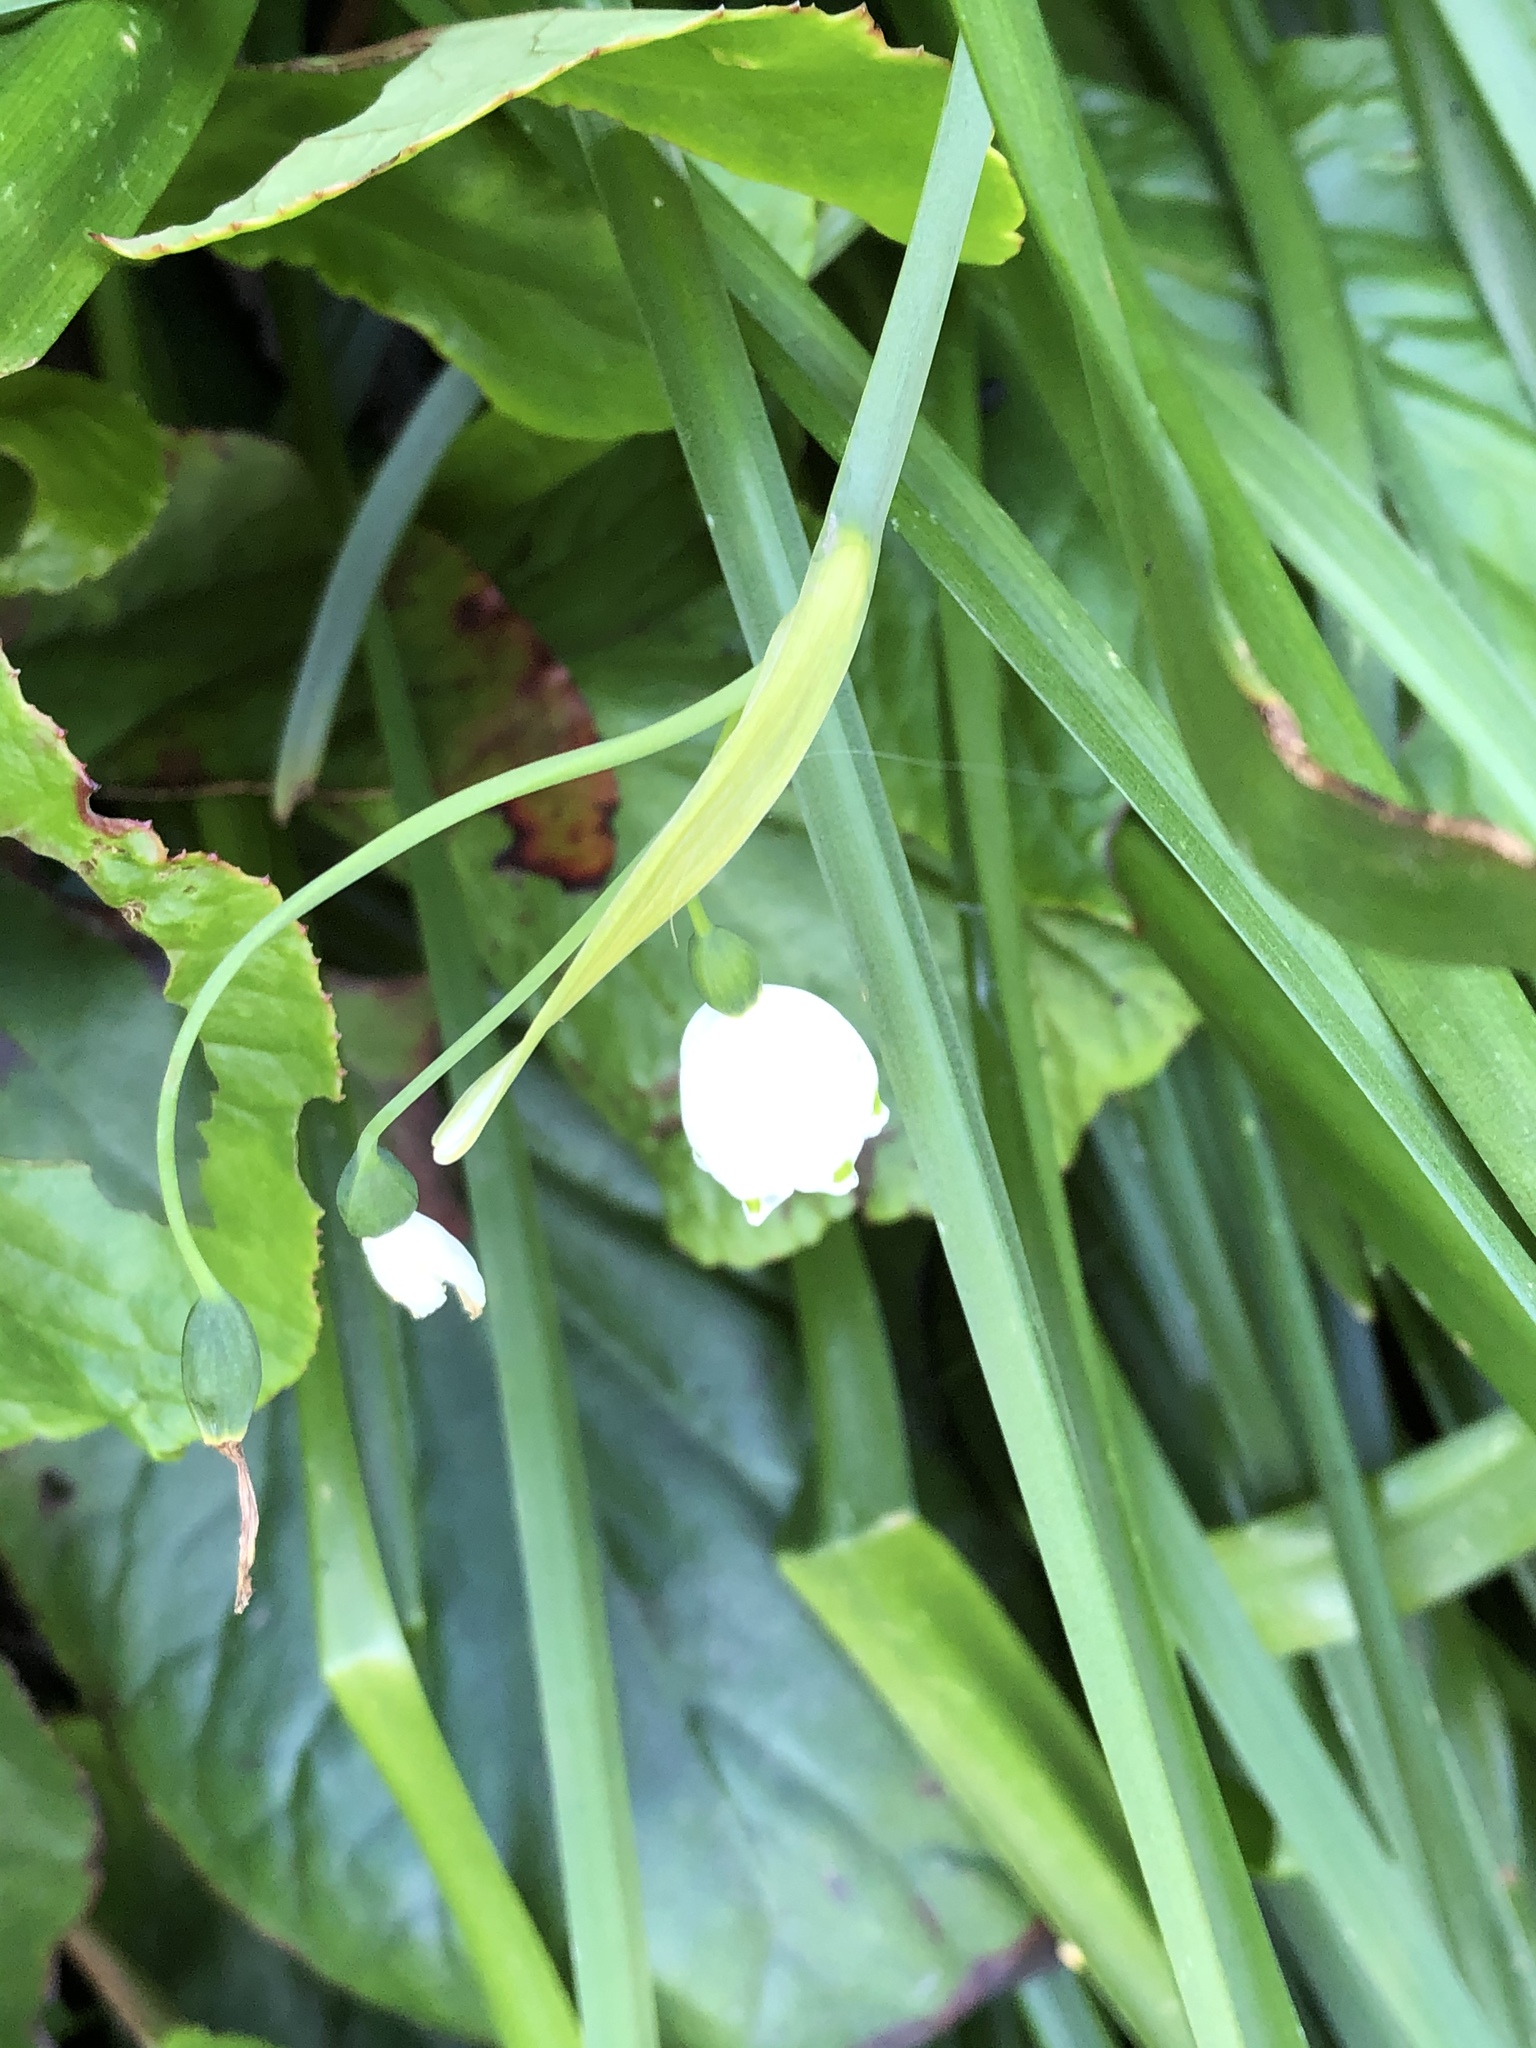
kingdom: Plantae
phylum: Tracheophyta
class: Liliopsida
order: Asparagales
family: Amaryllidaceae
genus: Leucojum
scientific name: Leucojum aestivum
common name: Summer snowflake
